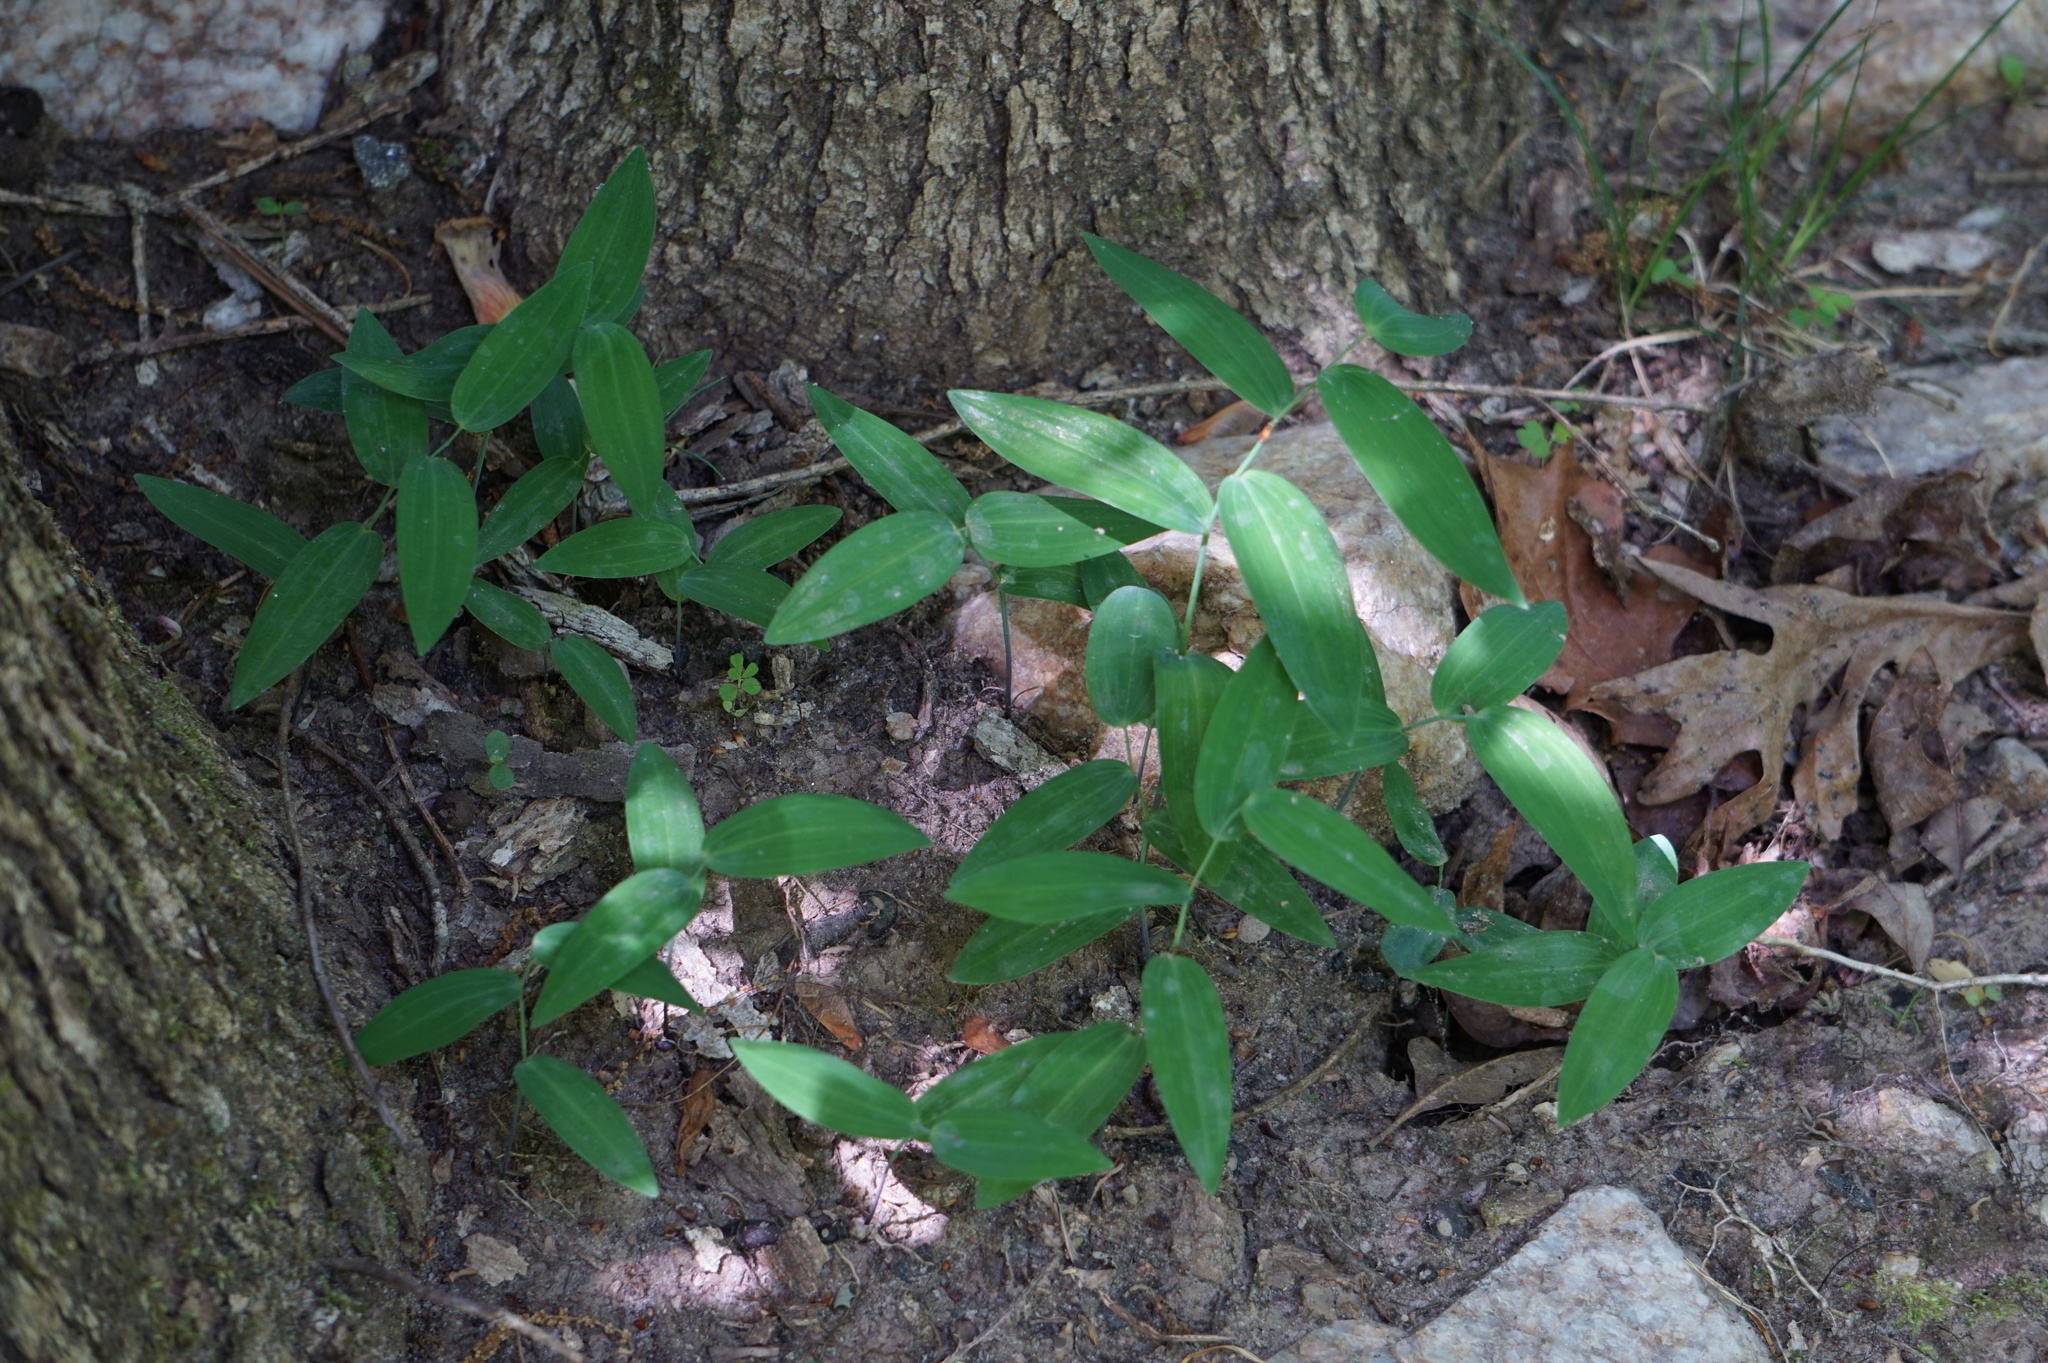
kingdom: Plantae
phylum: Tracheophyta
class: Liliopsida
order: Asparagales
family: Asparagaceae
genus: Polygonatum
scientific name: Polygonatum biflorum
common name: American solomon's-seal
